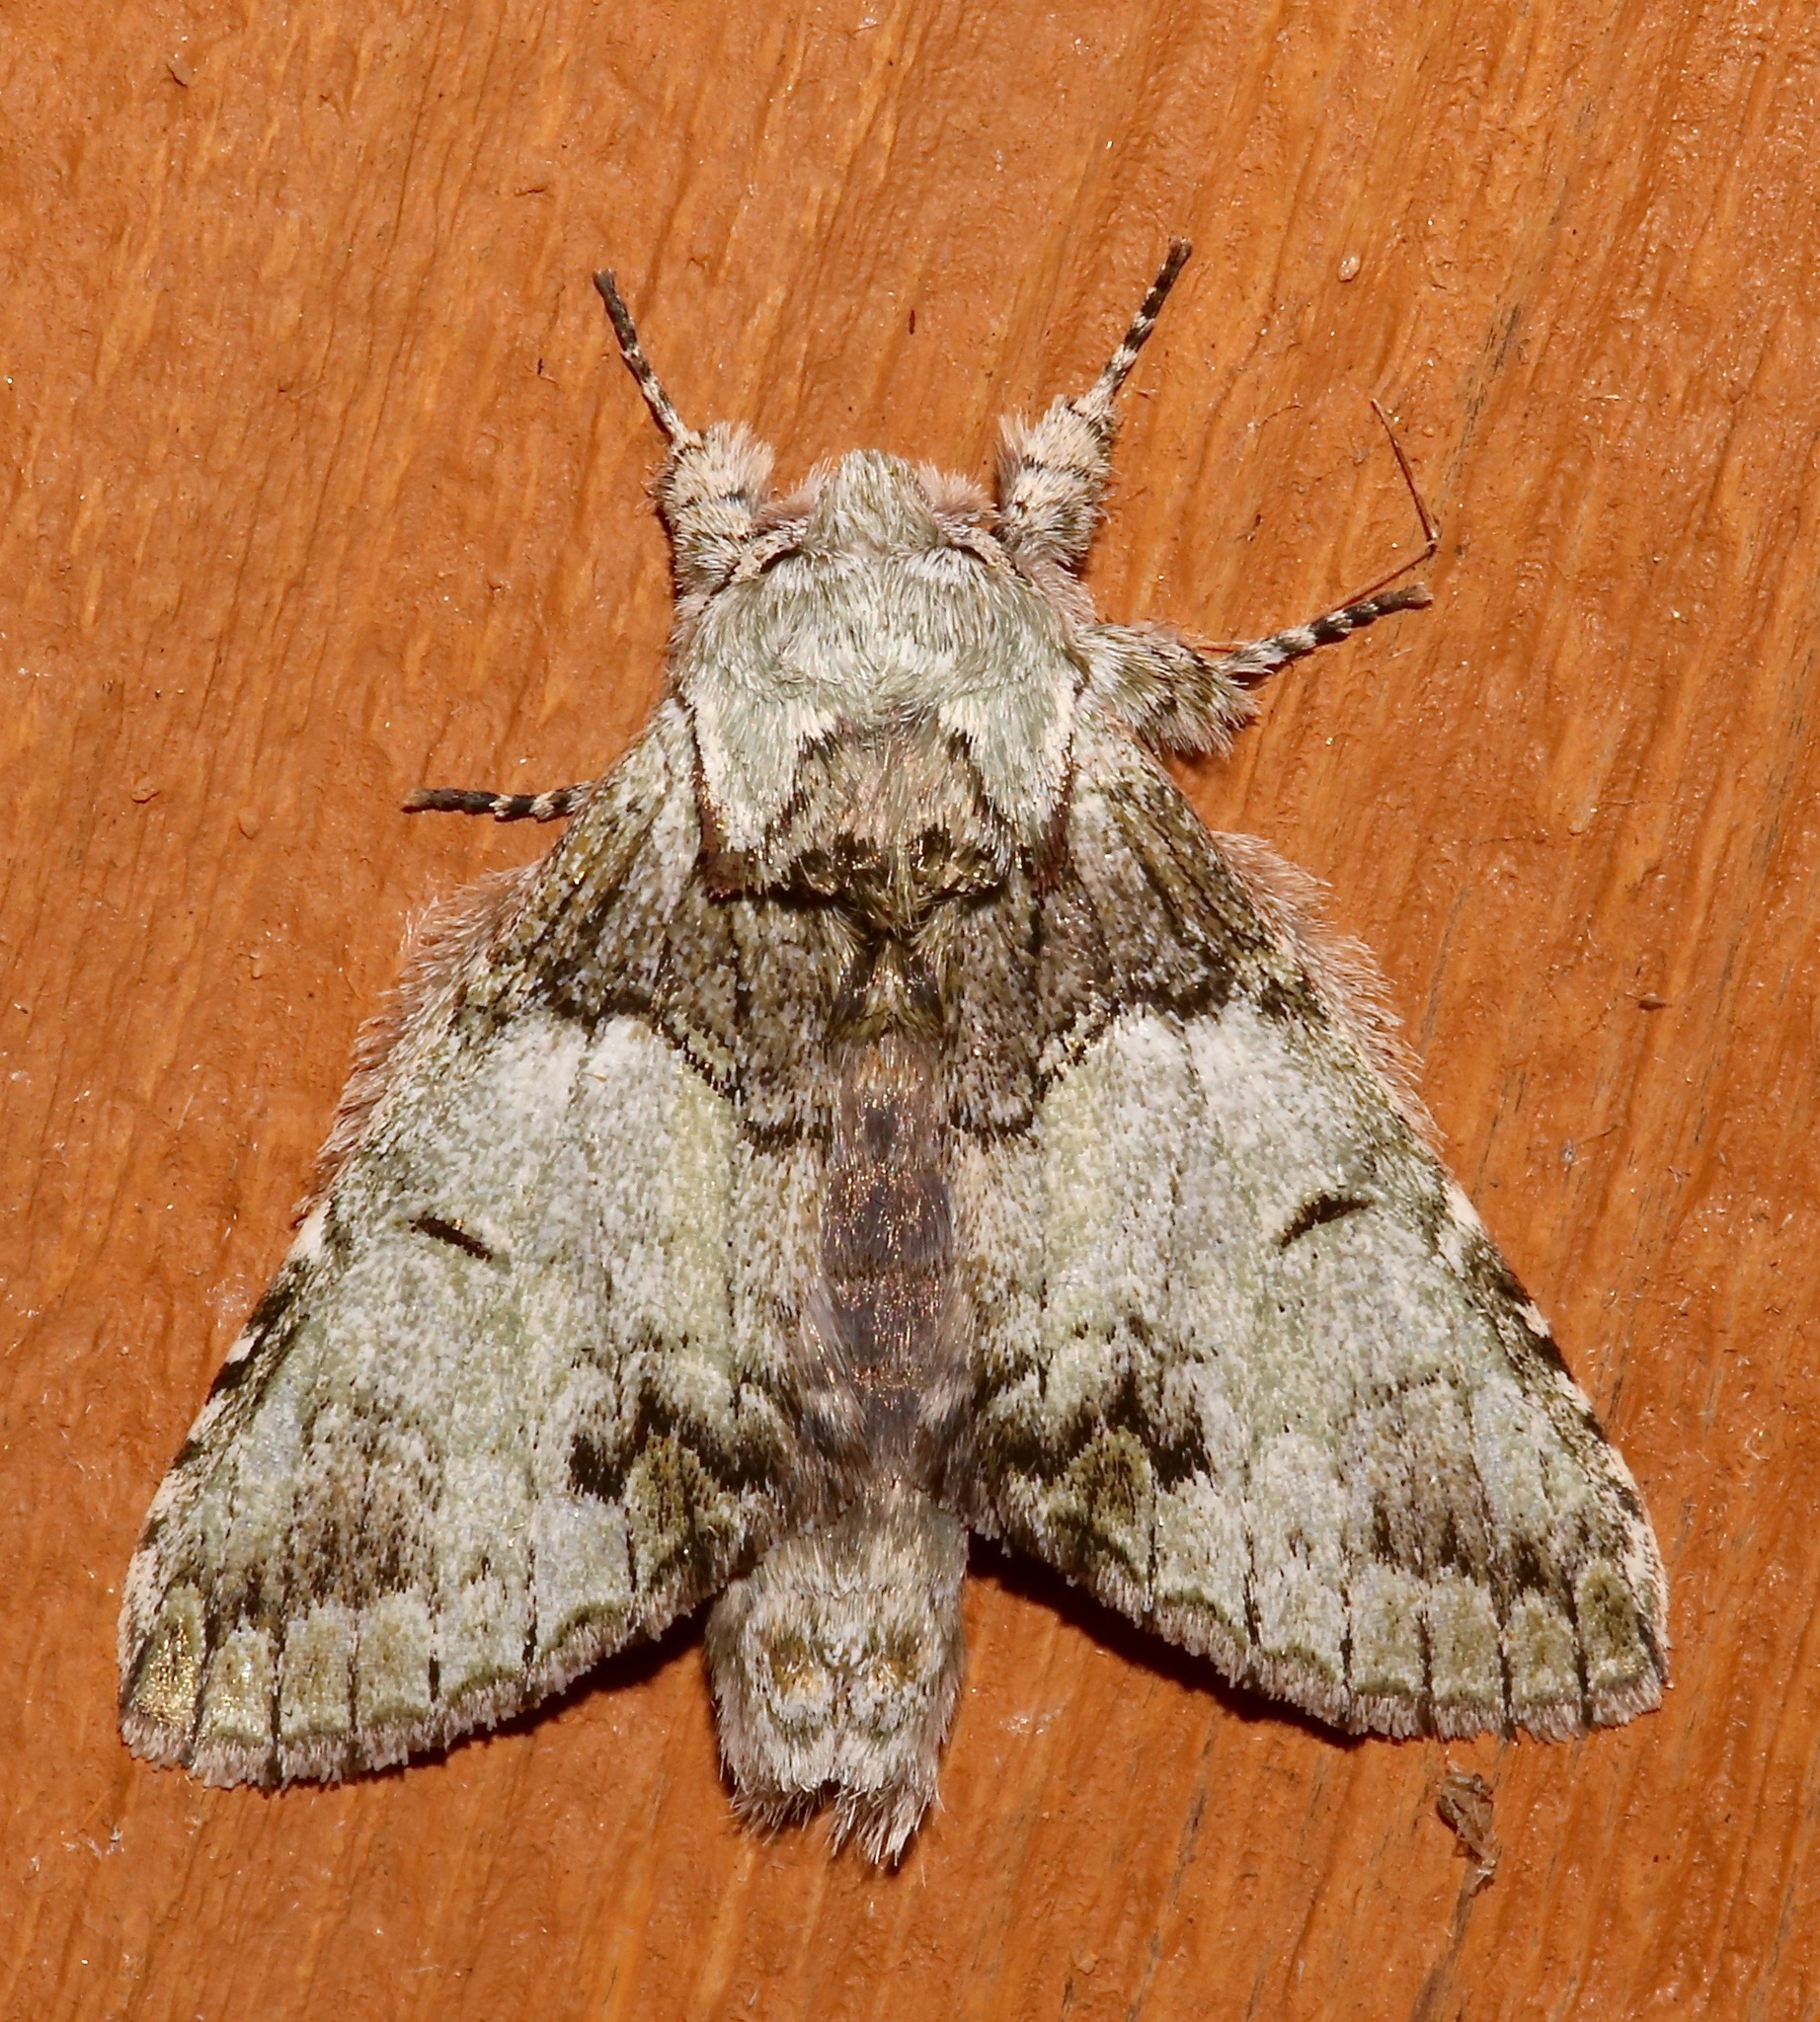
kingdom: Animalia
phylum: Arthropoda
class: Insecta
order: Lepidoptera
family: Notodontidae
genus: Macrurocampa
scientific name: Macrurocampa marthesia
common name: Mottled prominent
